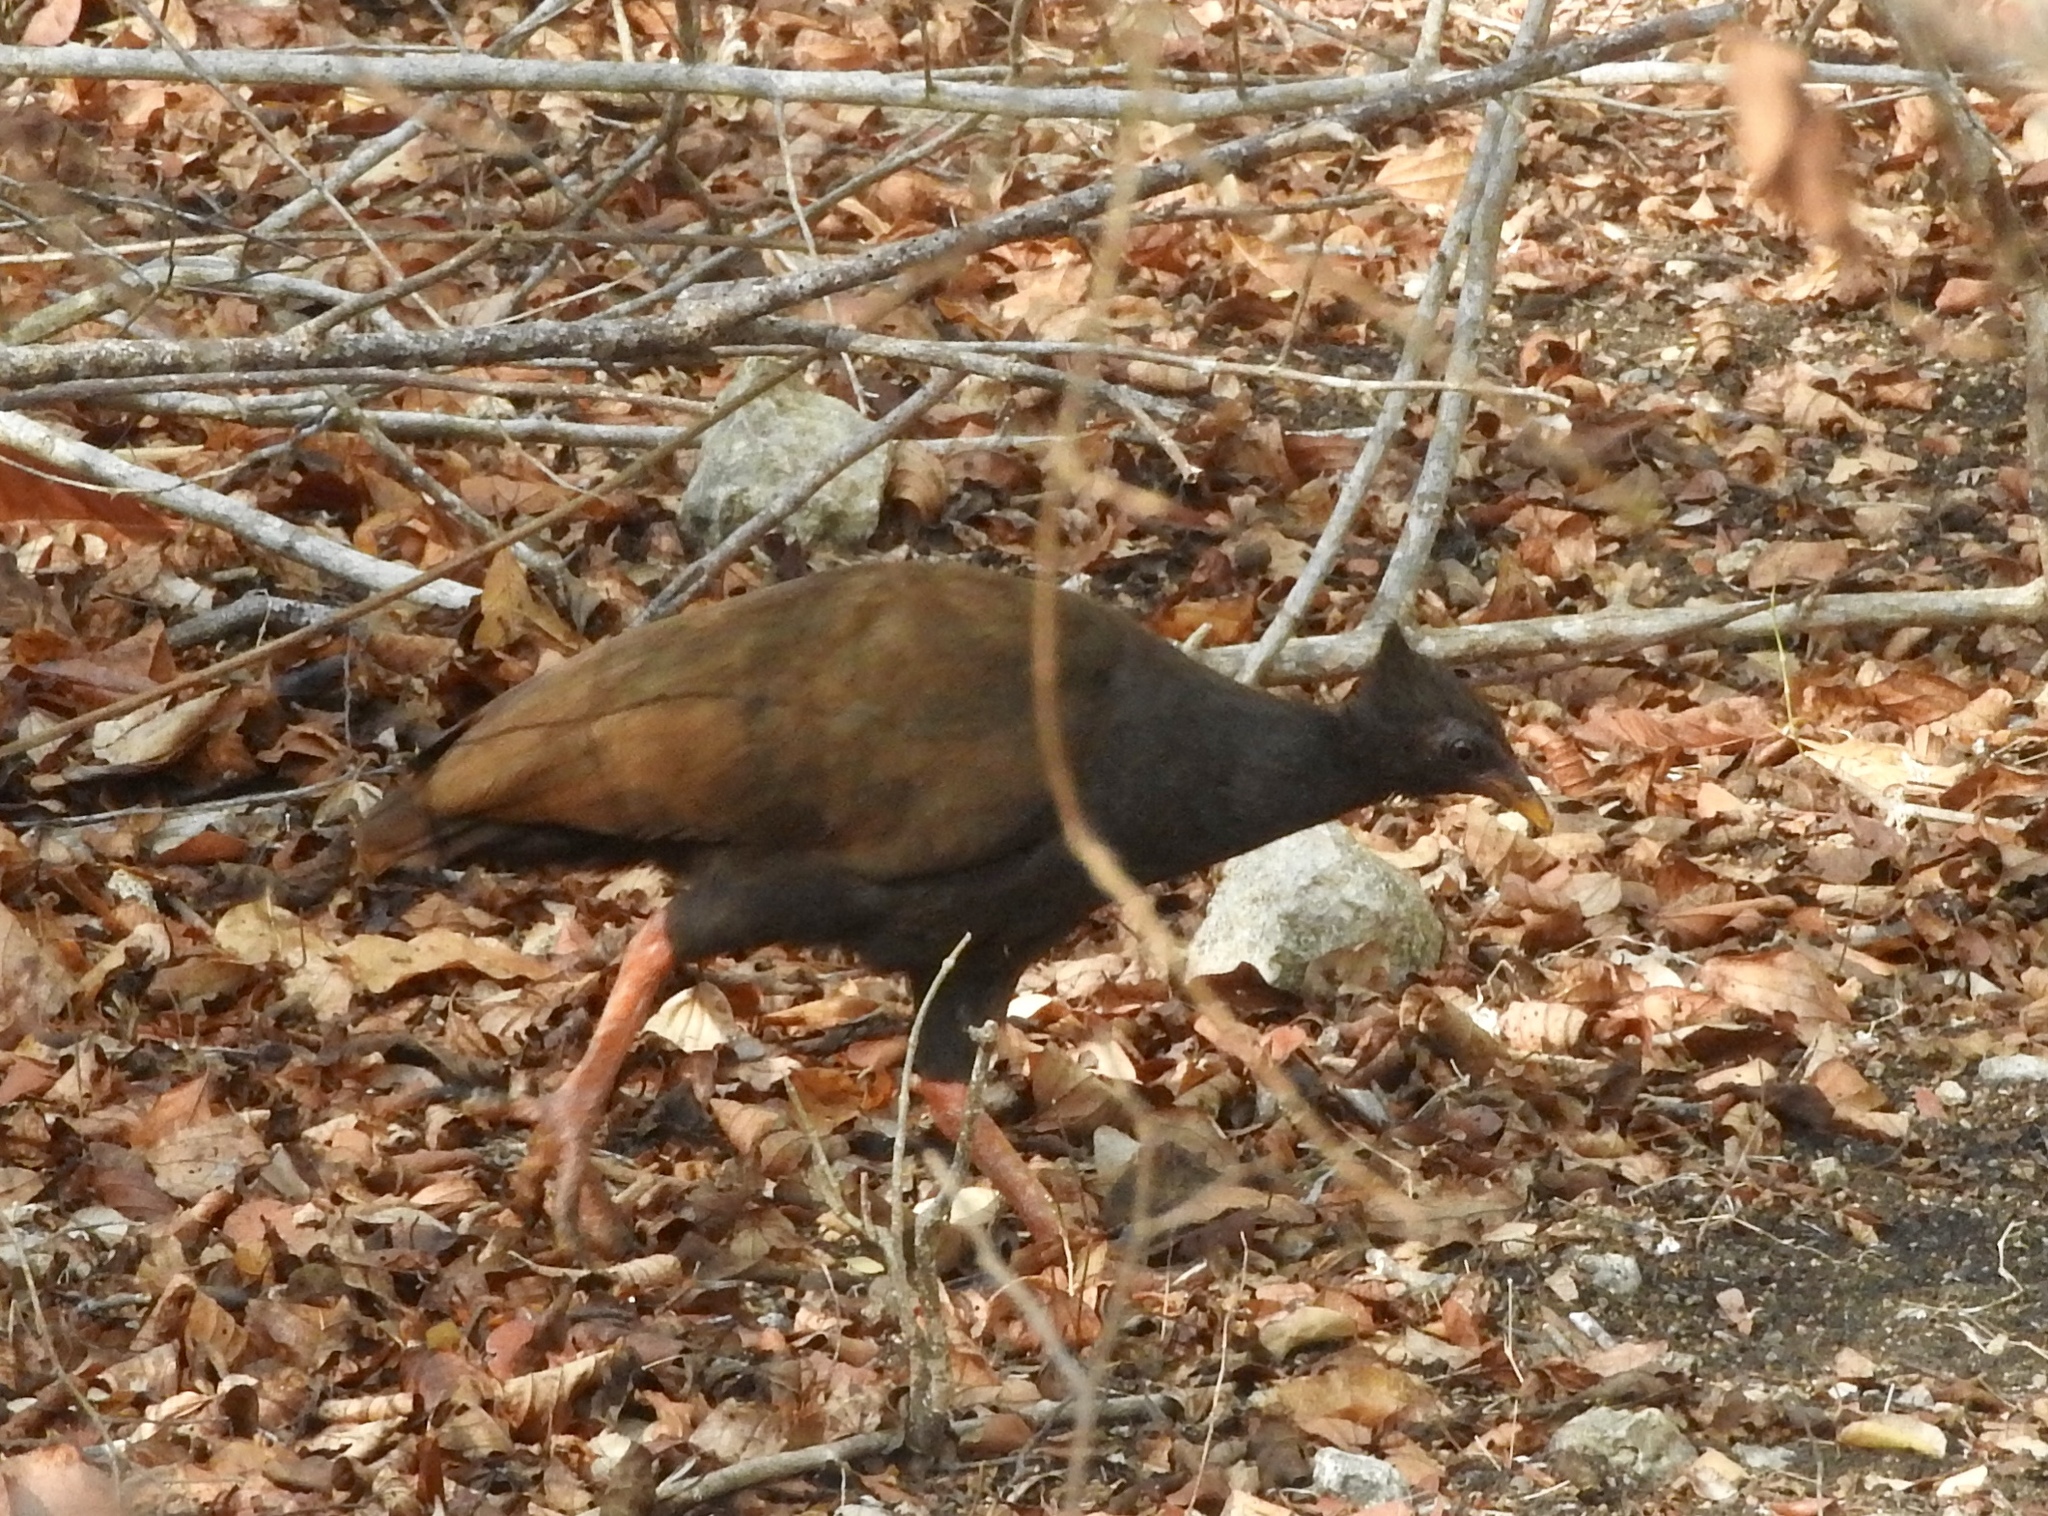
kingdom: Animalia
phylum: Chordata
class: Aves
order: Galliformes
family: Megapodiidae
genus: Megapodius
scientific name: Megapodius reinwardt
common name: Orange-footed scrubfowl
